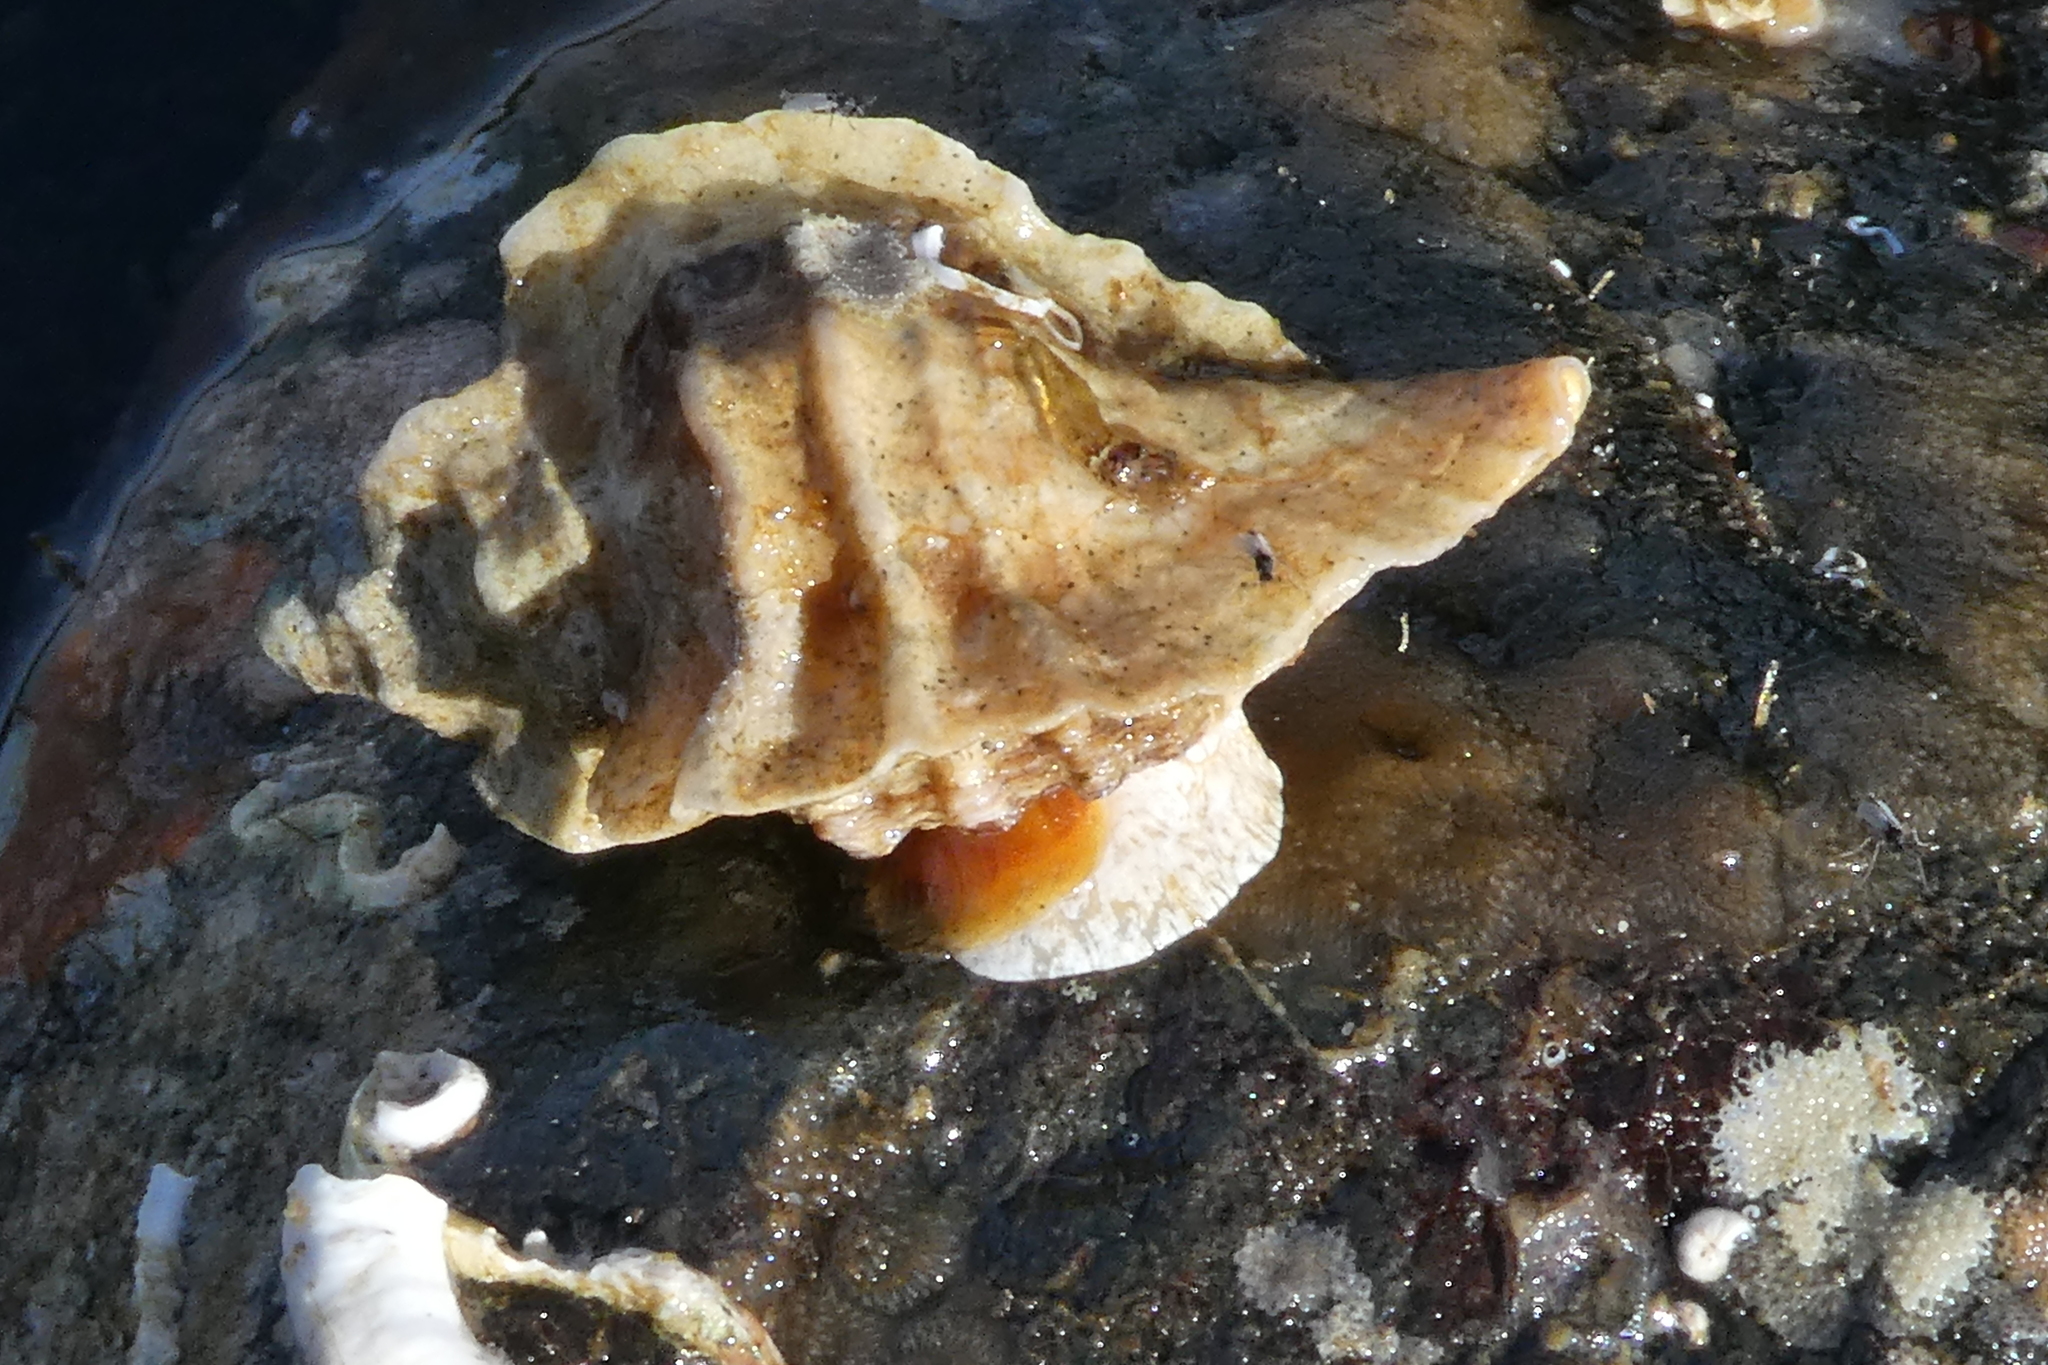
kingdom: Animalia
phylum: Mollusca
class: Gastropoda
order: Neogastropoda
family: Muricidae
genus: Ceratostoma
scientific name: Ceratostoma foliatum
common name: Foliate thorn purpura
